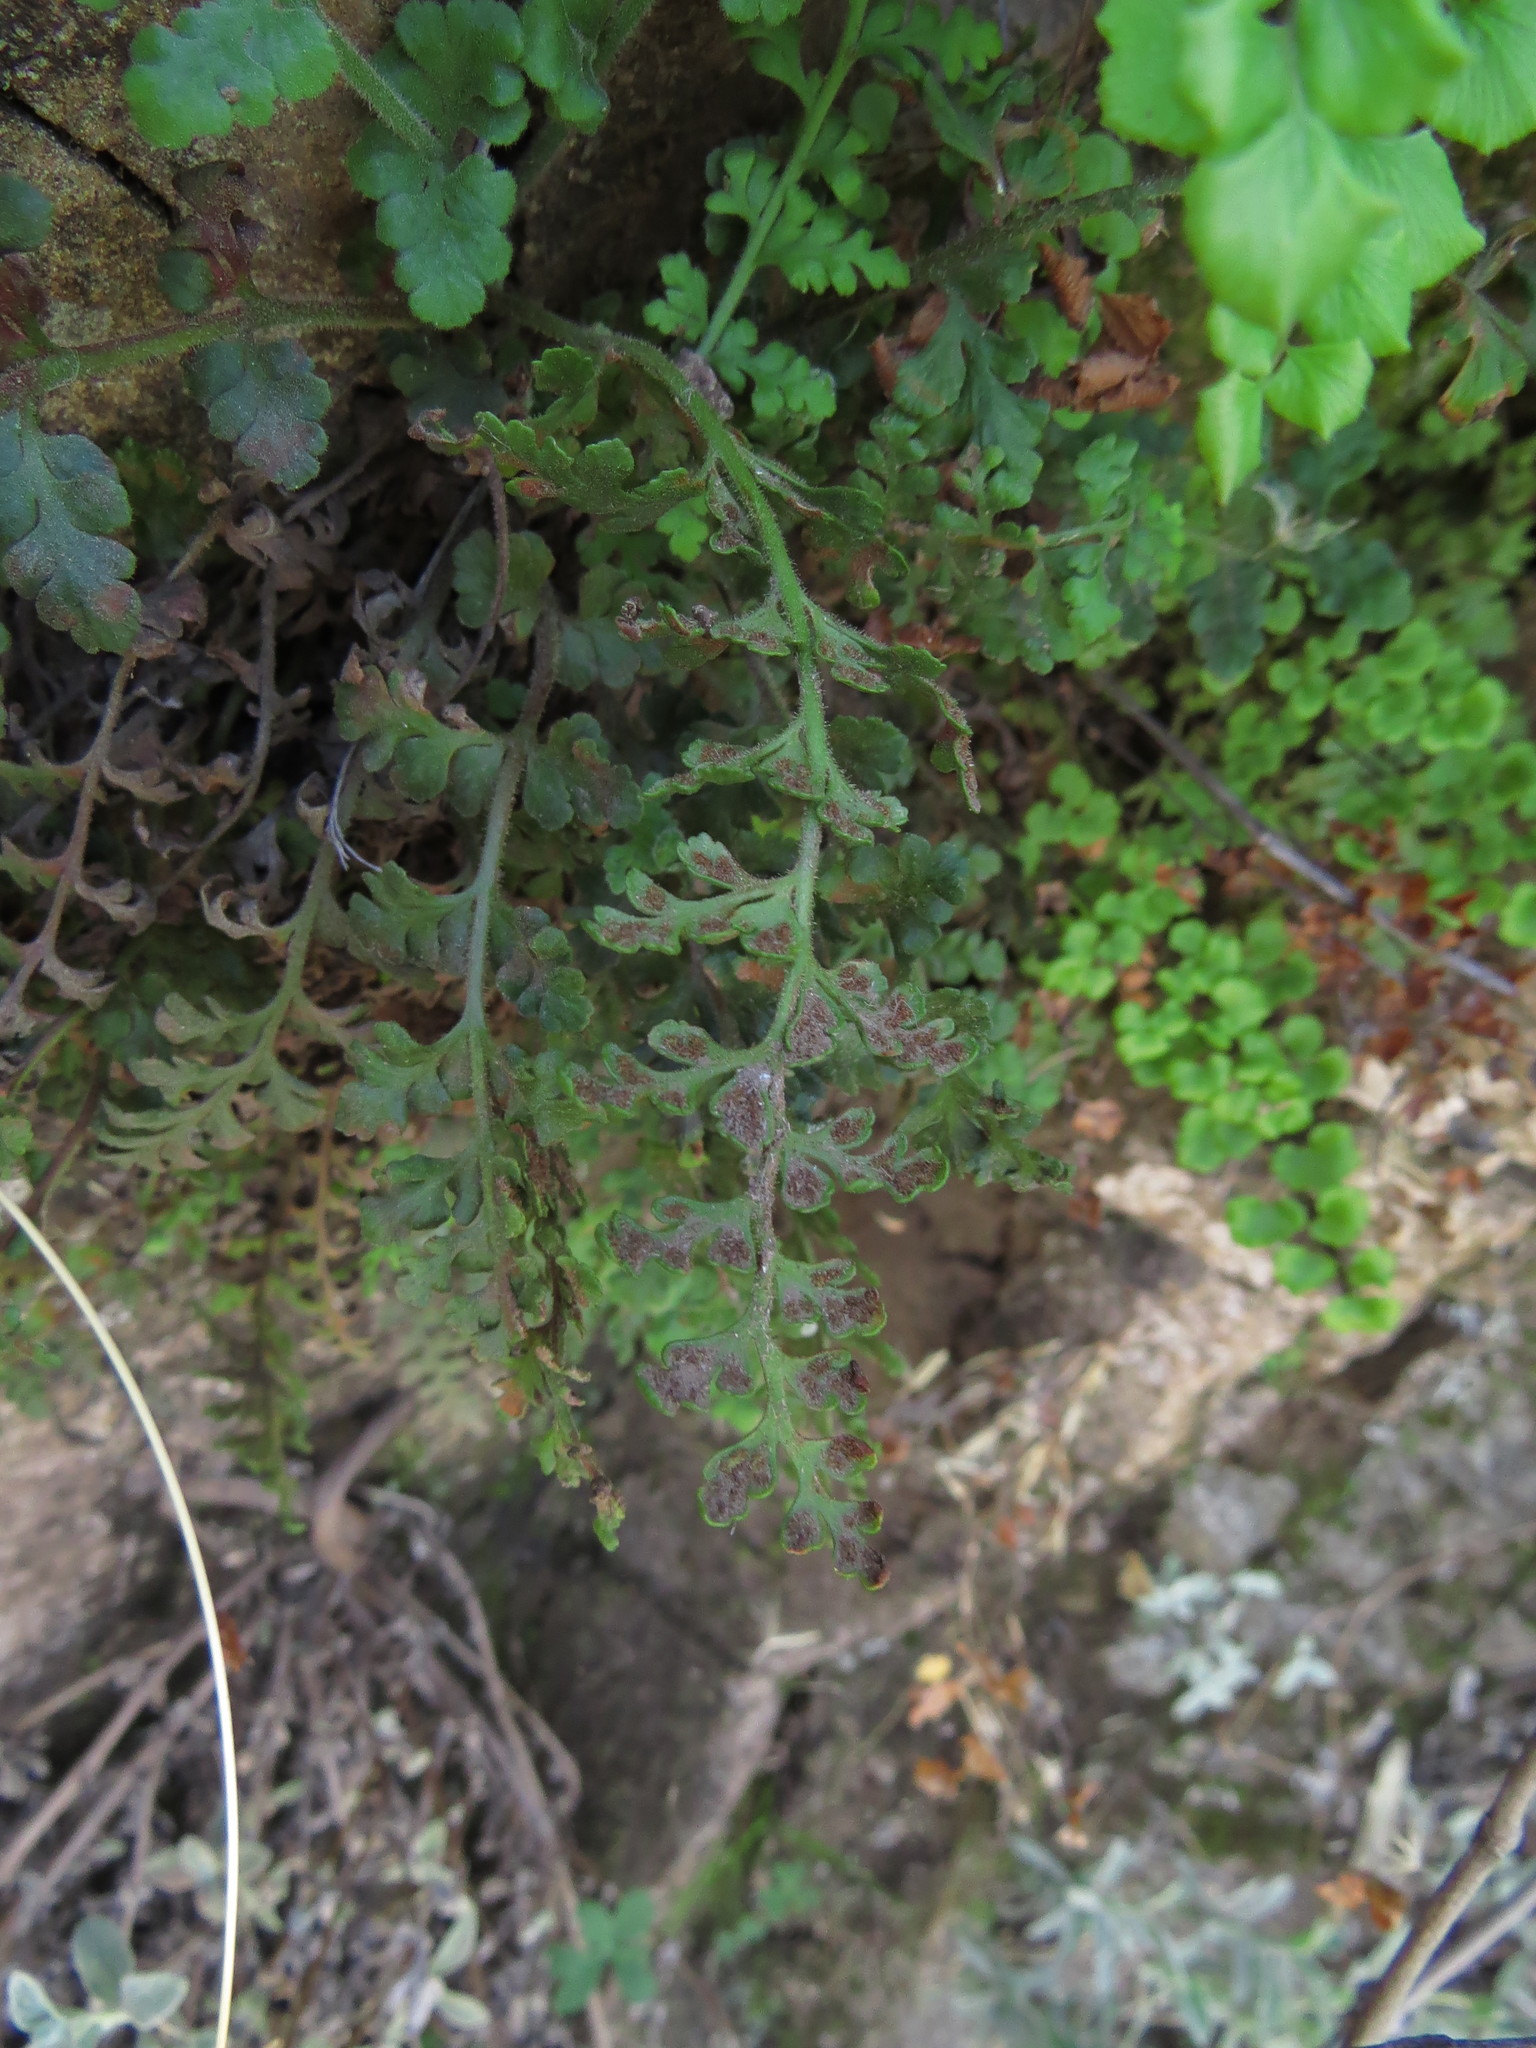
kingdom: Plantae
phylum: Tracheophyta
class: Polypodiopsida
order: Polypodiales
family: Aspleniaceae
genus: Asplenium
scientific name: Asplenium papaverifolium
